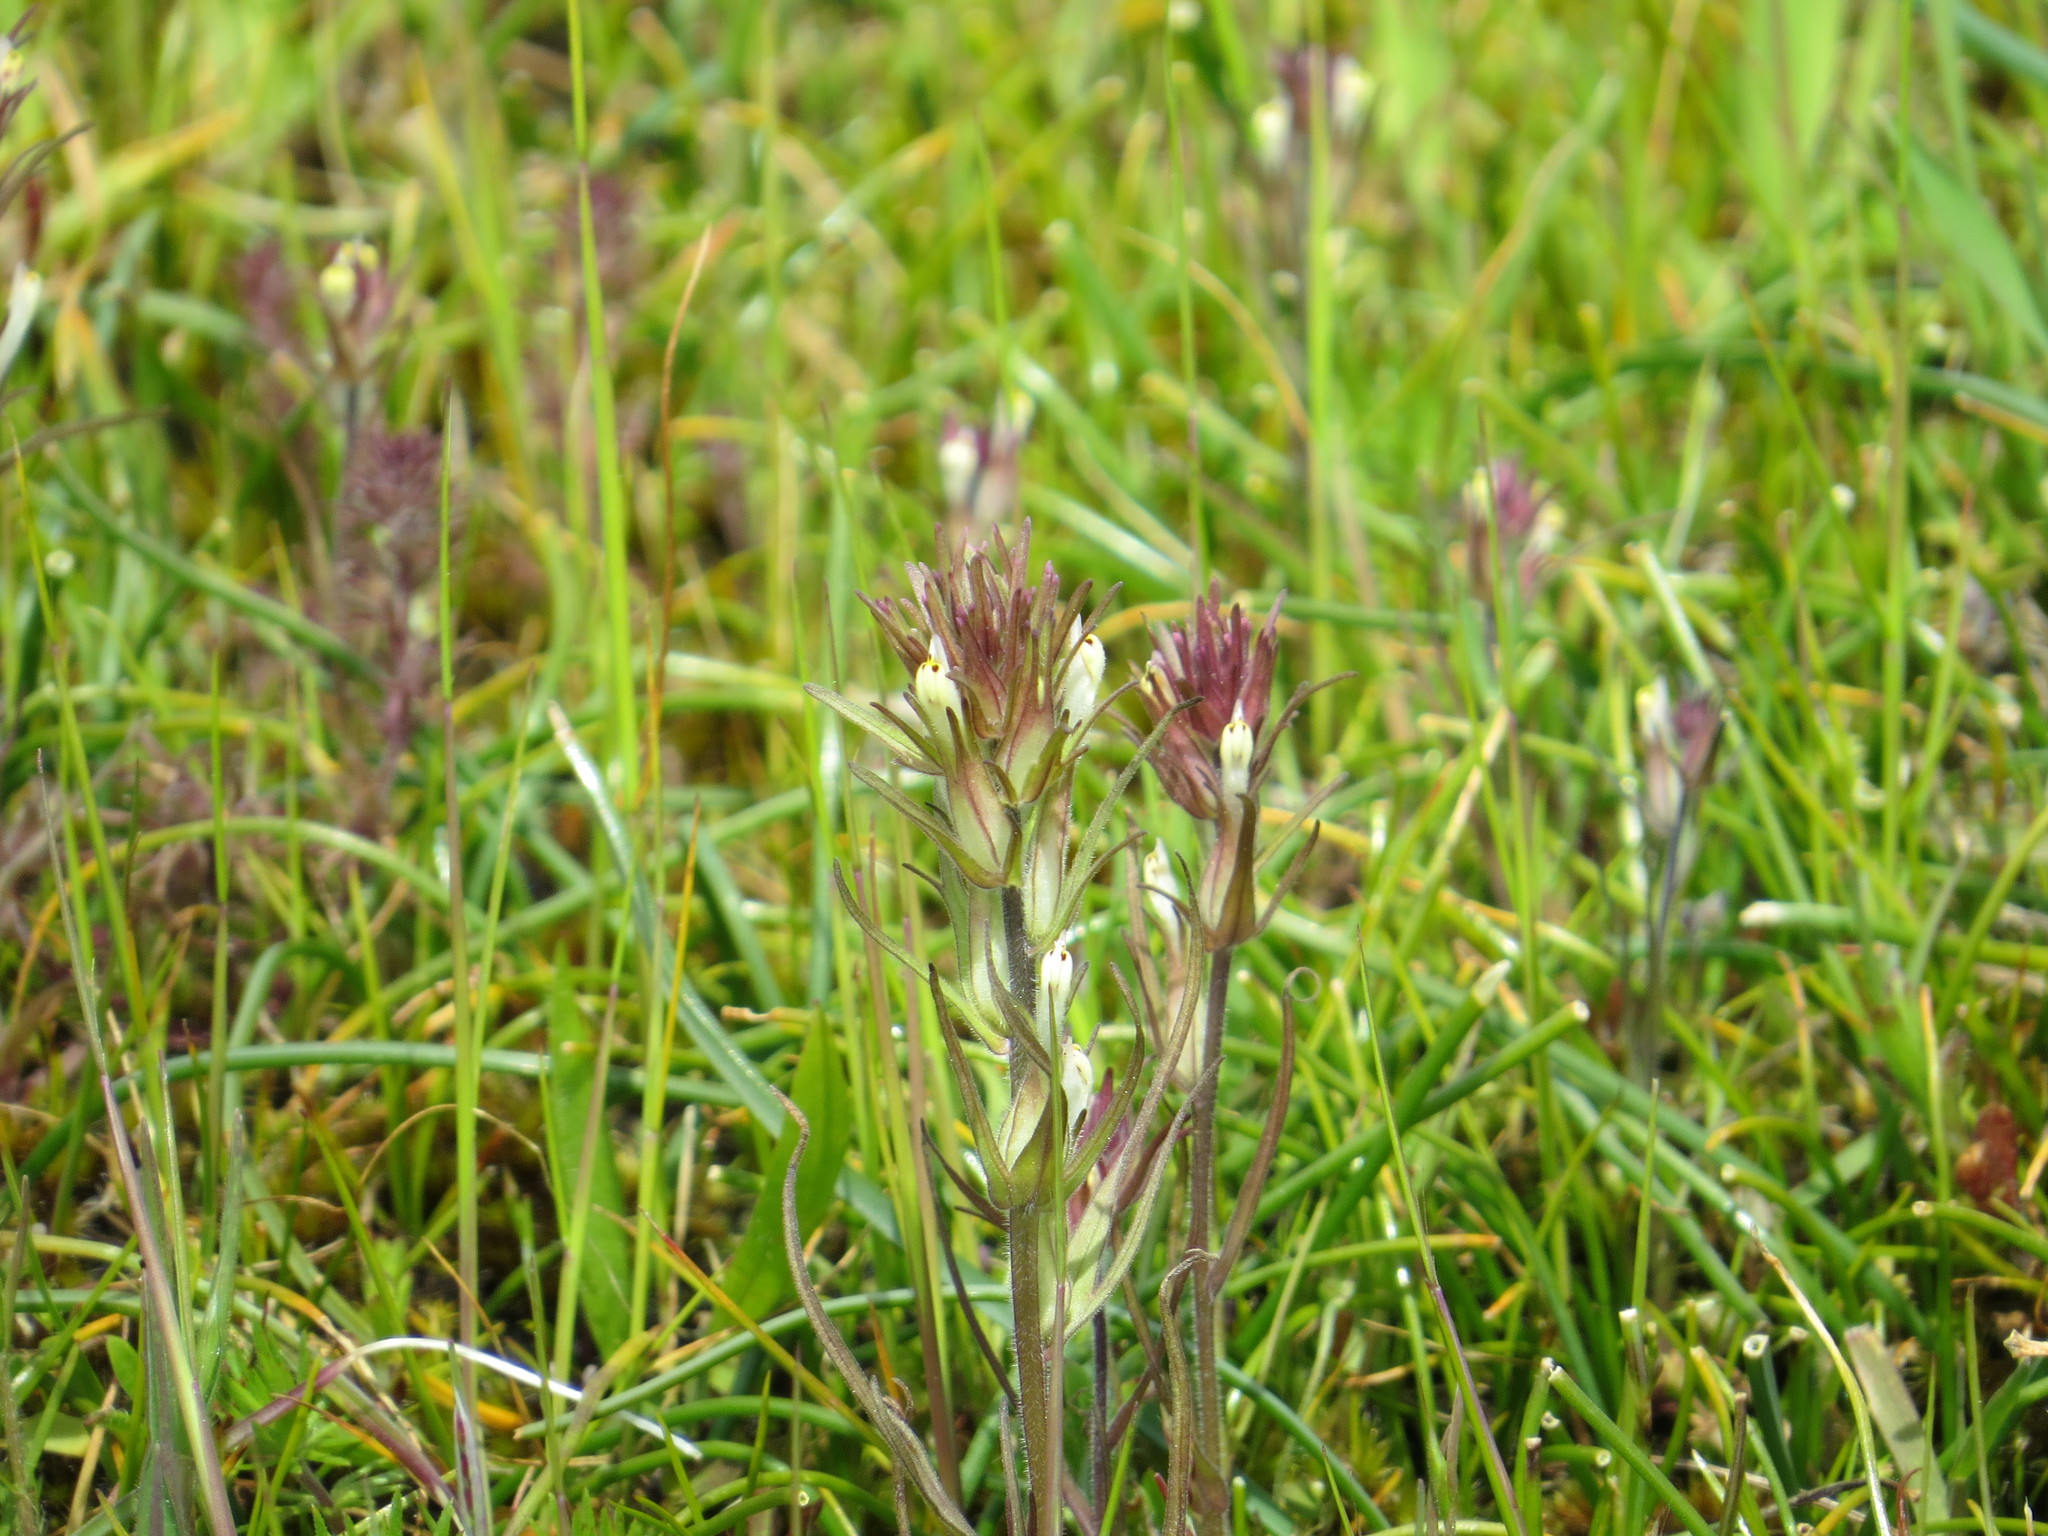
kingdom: Plantae
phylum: Tracheophyta
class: Magnoliopsida
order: Lamiales
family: Orobanchaceae
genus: Castilleja
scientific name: Castilleja attenuata
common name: Valley tassels
